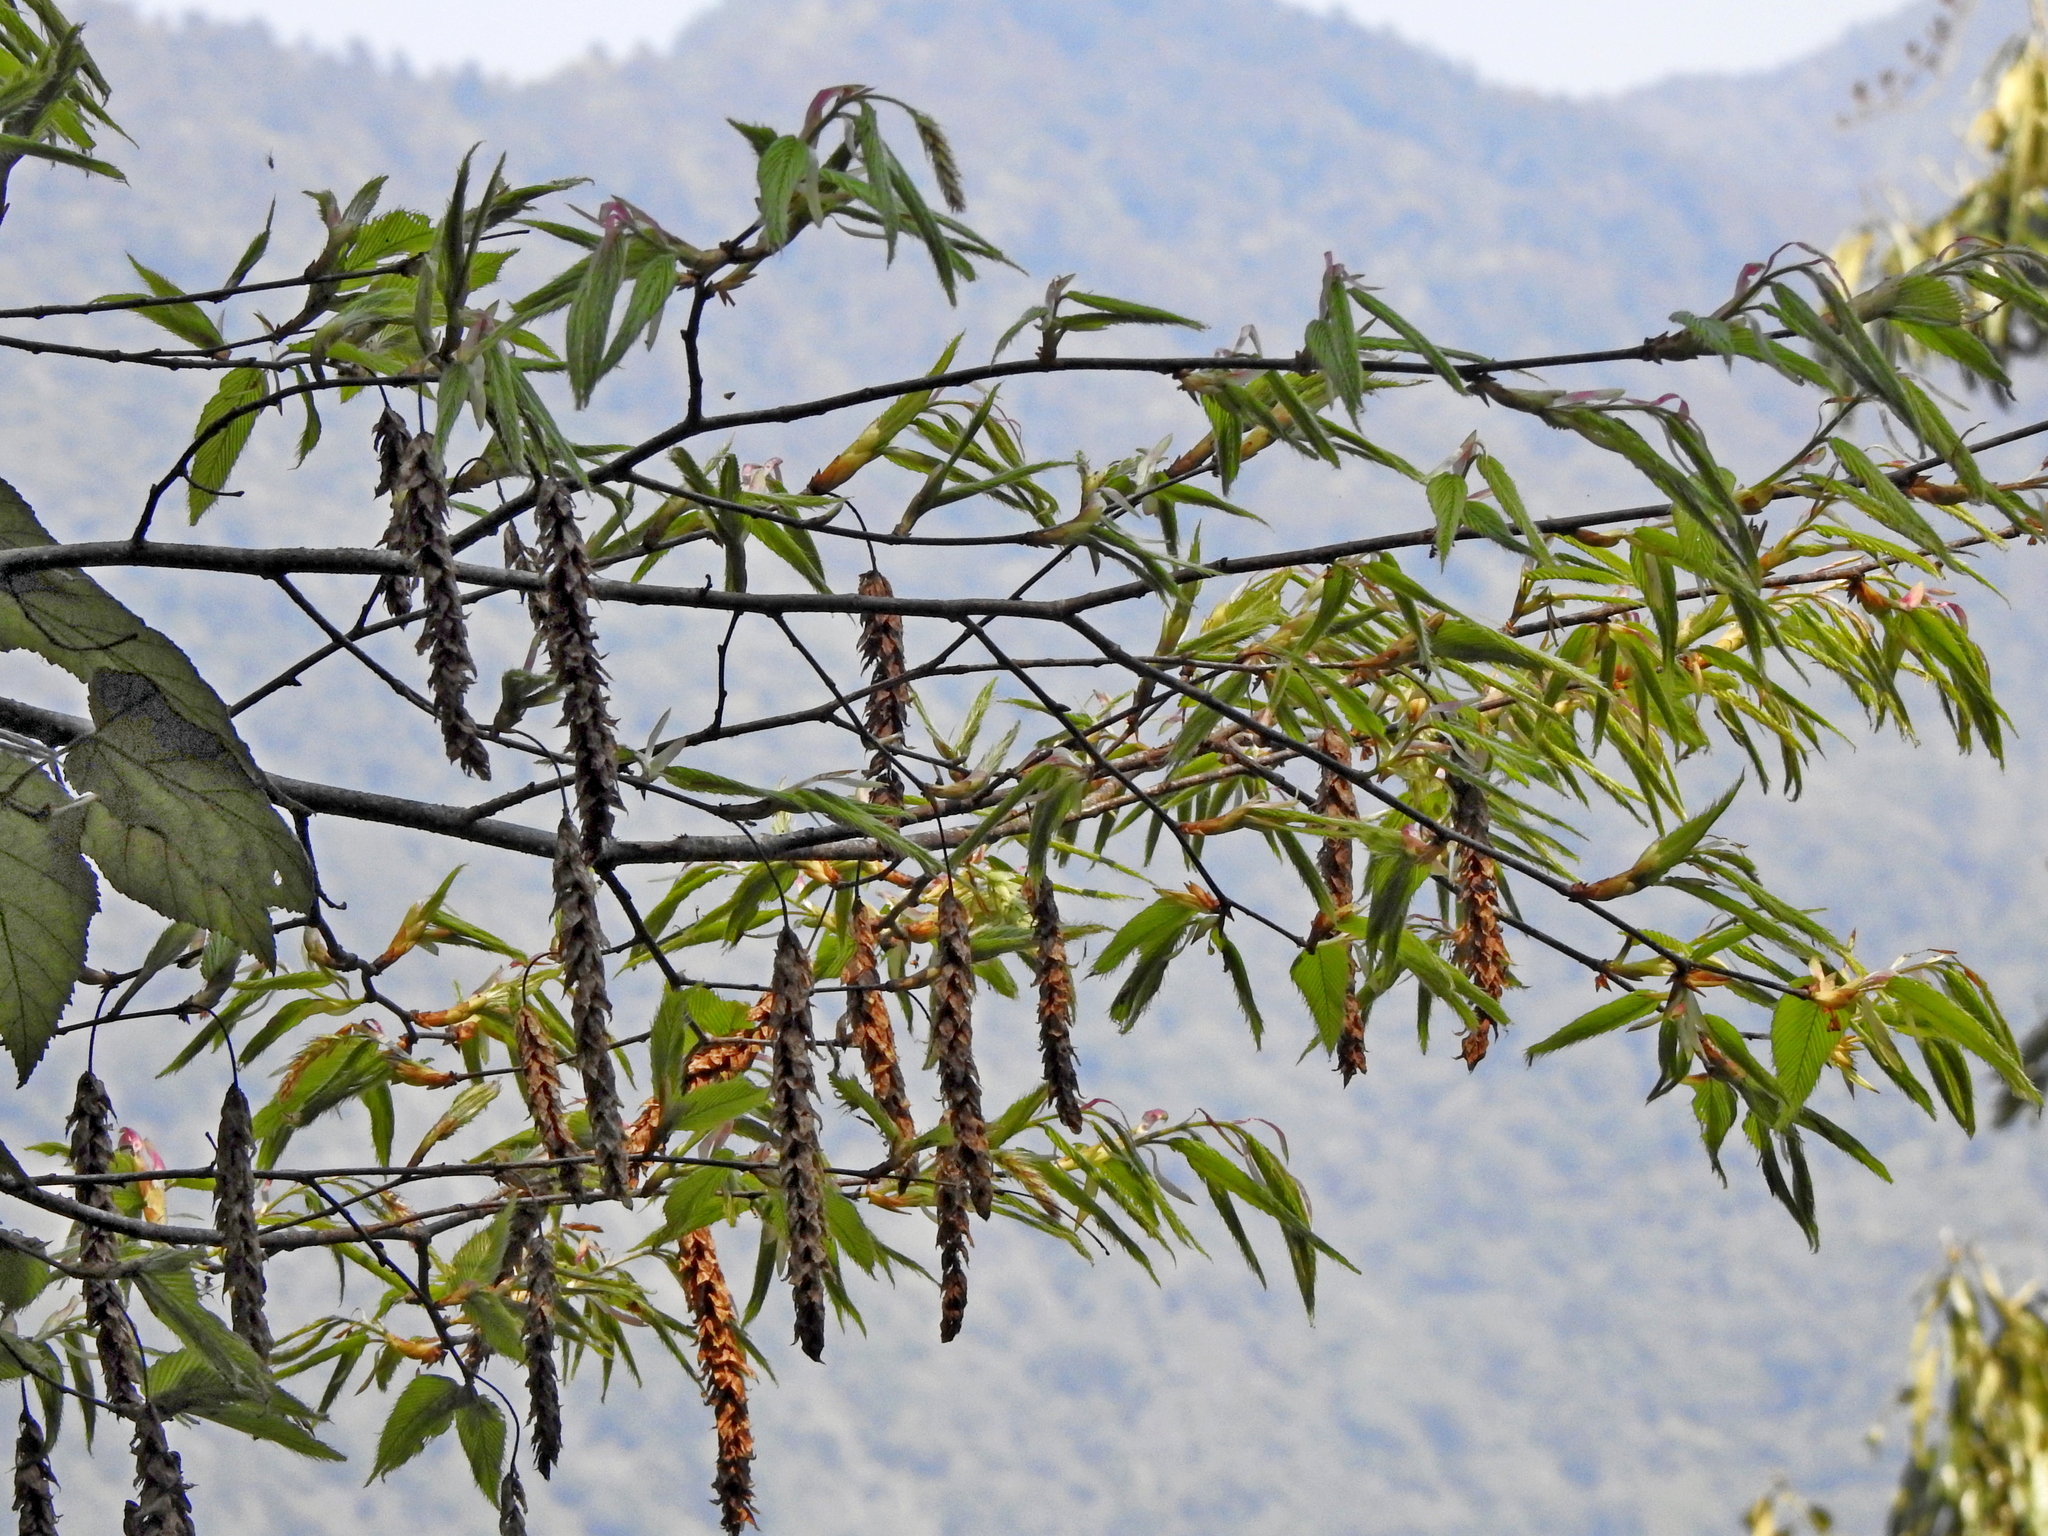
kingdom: Plantae
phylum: Tracheophyta
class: Magnoliopsida
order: Fagales
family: Betulaceae
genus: Carpinus
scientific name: Carpinus rankanensis
